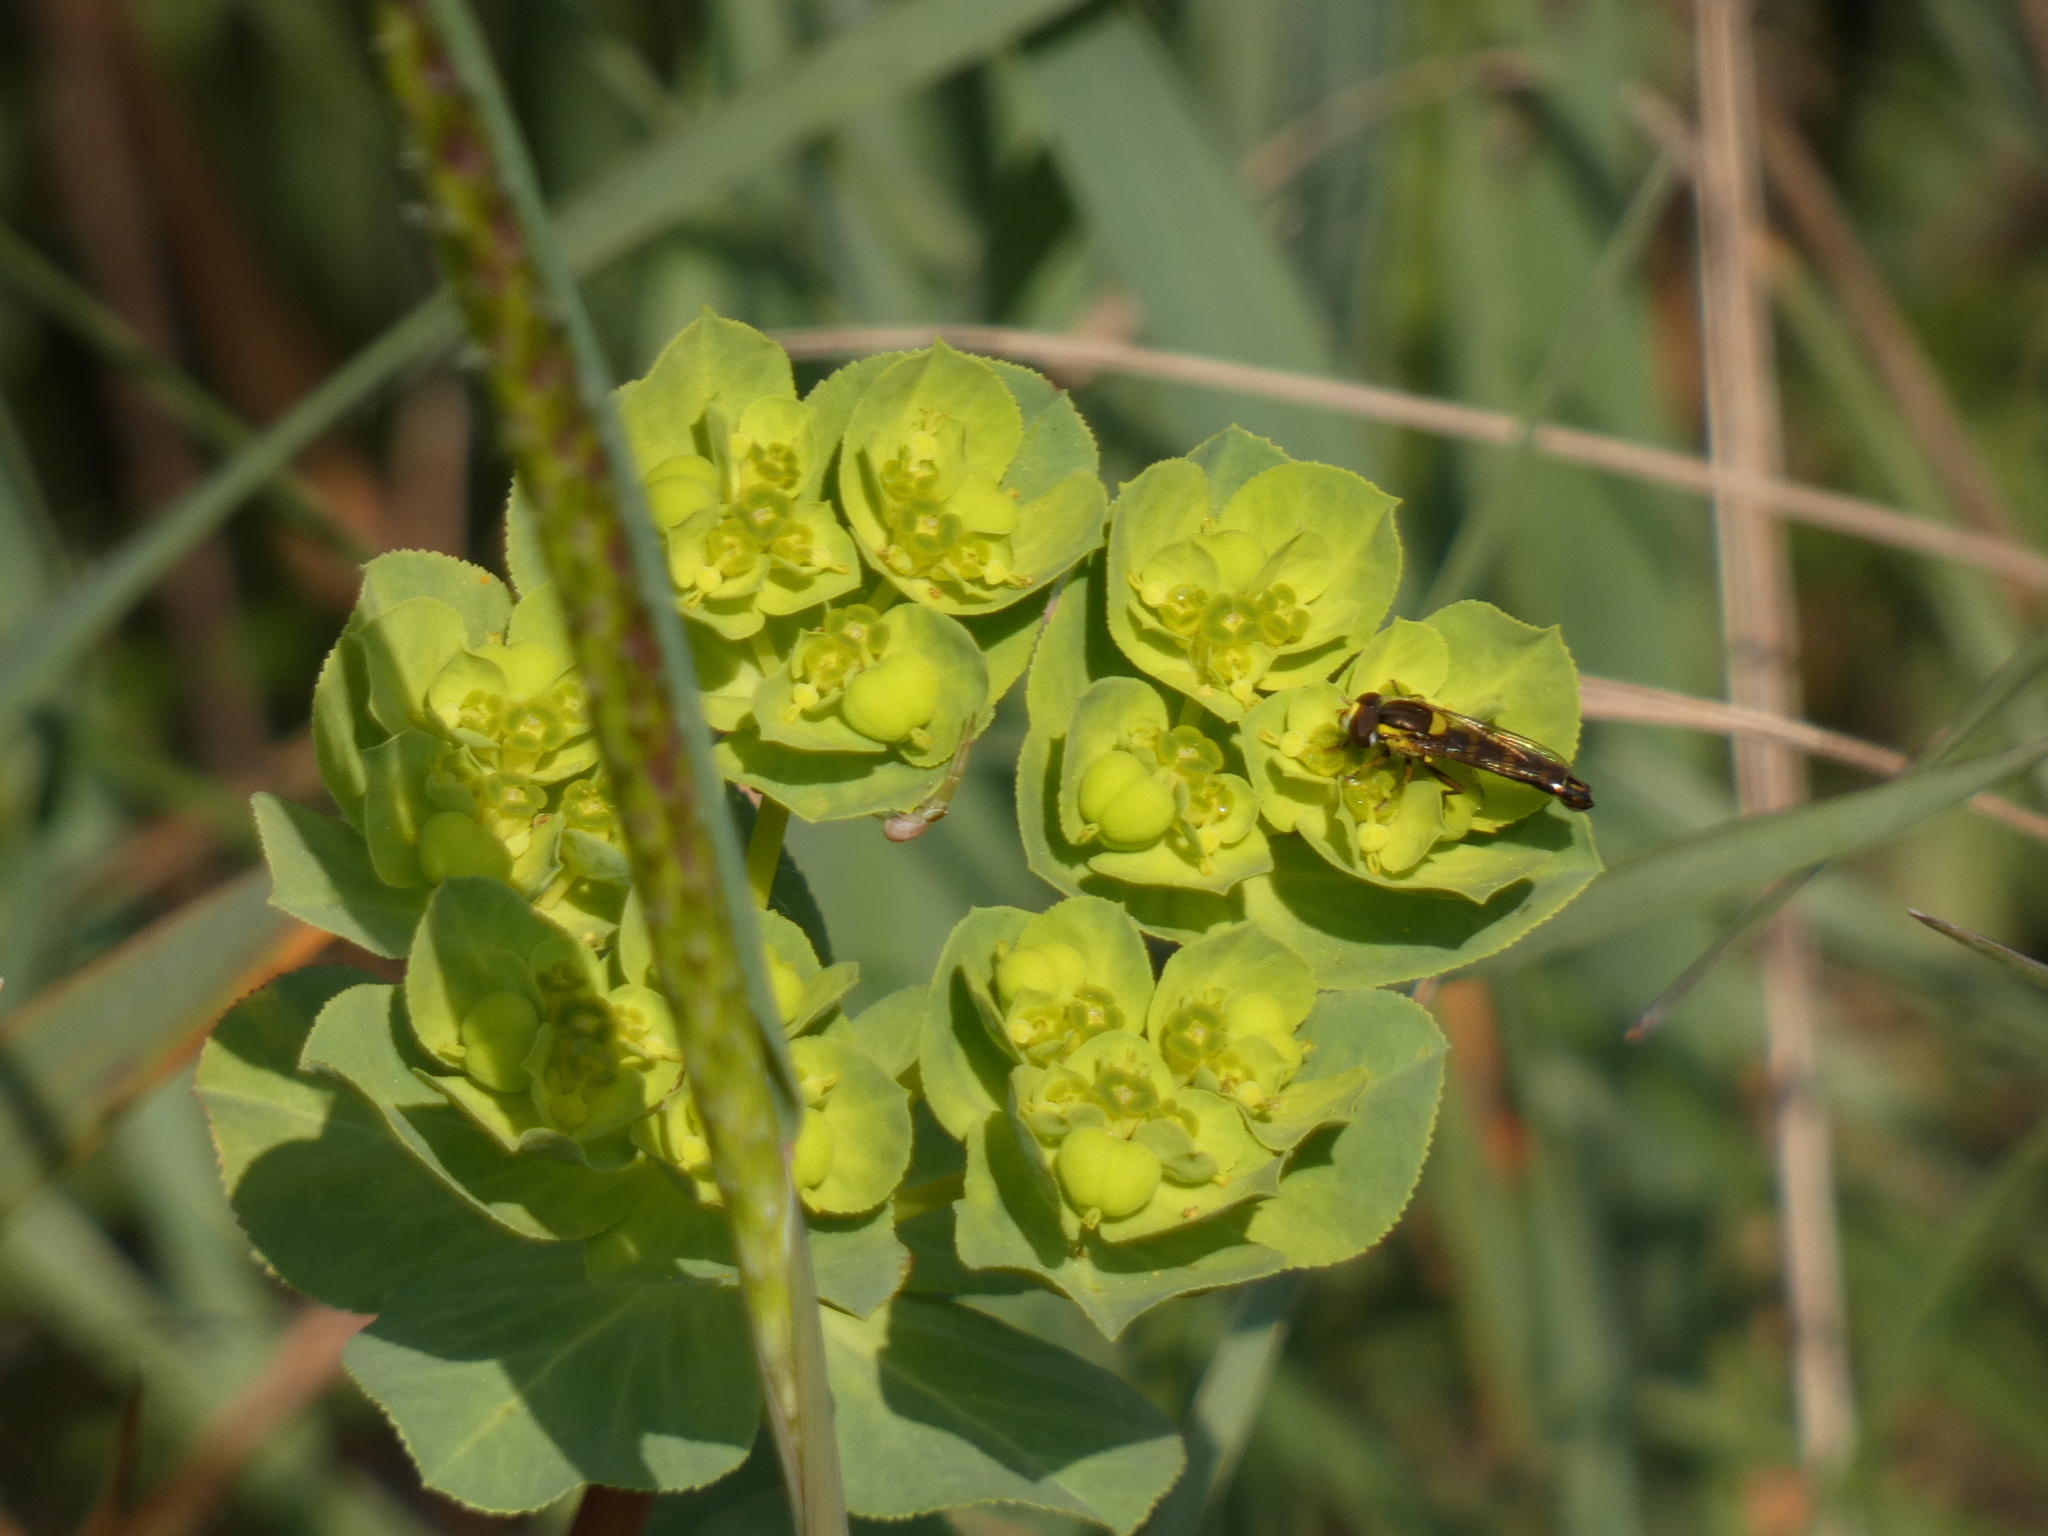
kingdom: Animalia
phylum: Arthropoda
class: Insecta
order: Diptera
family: Syrphidae
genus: Sphaerophoria
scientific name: Sphaerophoria scripta
